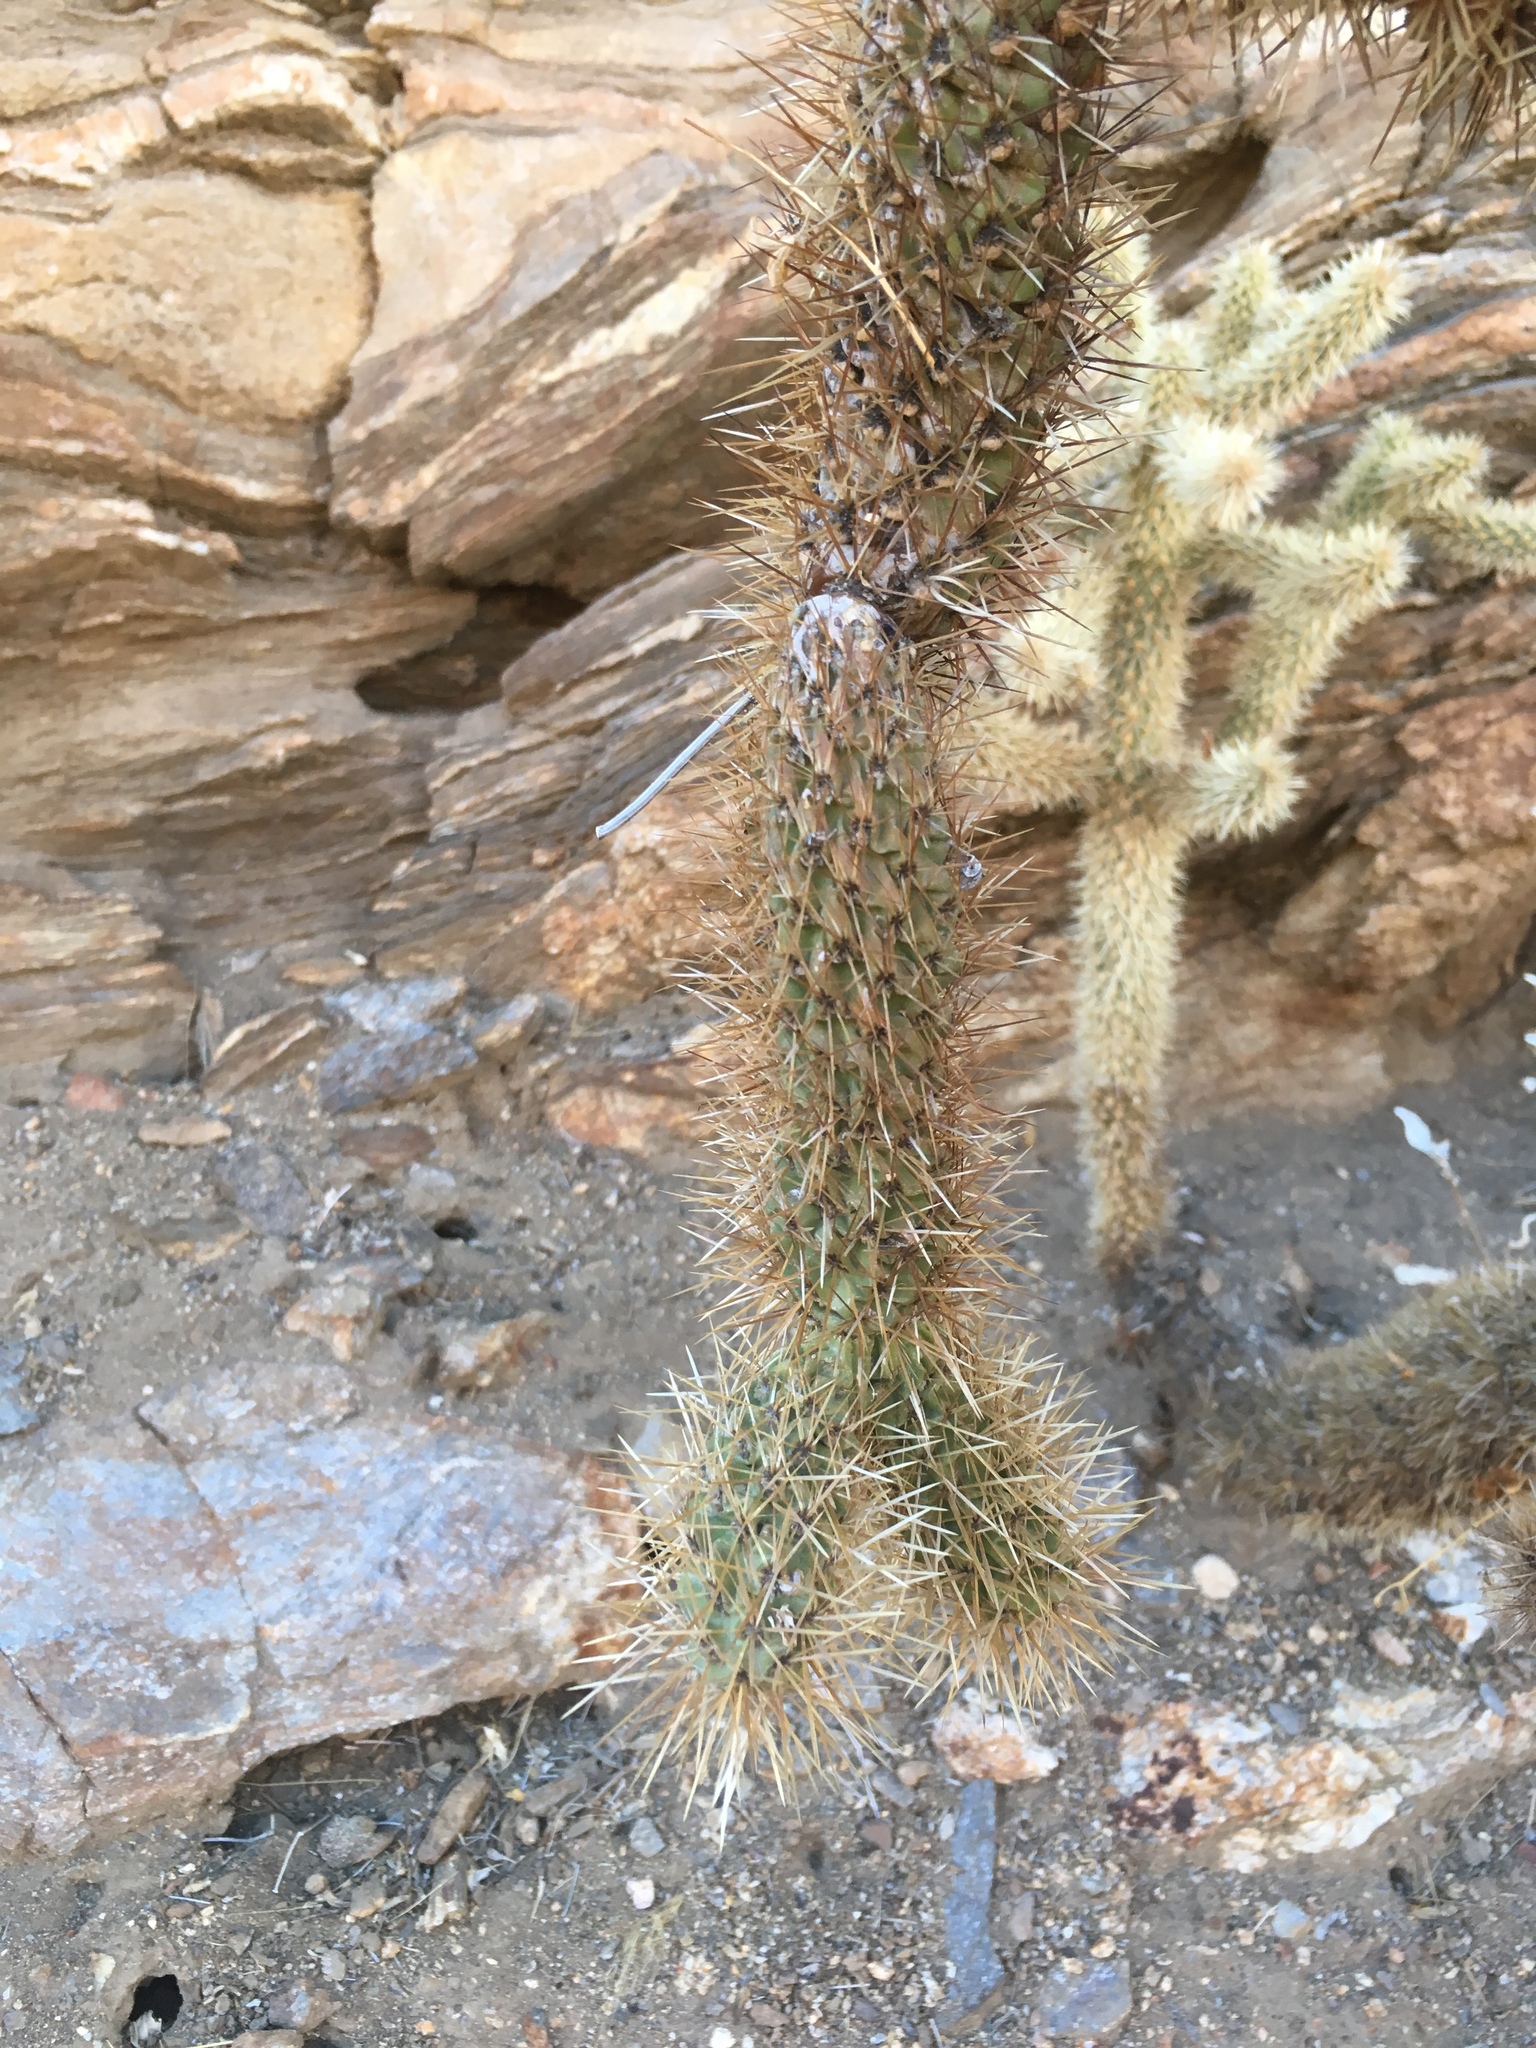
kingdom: Plantae
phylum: Tracheophyta
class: Magnoliopsida
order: Caryophyllales
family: Cactaceae
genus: Cylindropuntia
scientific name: Cylindropuntia fosbergii
